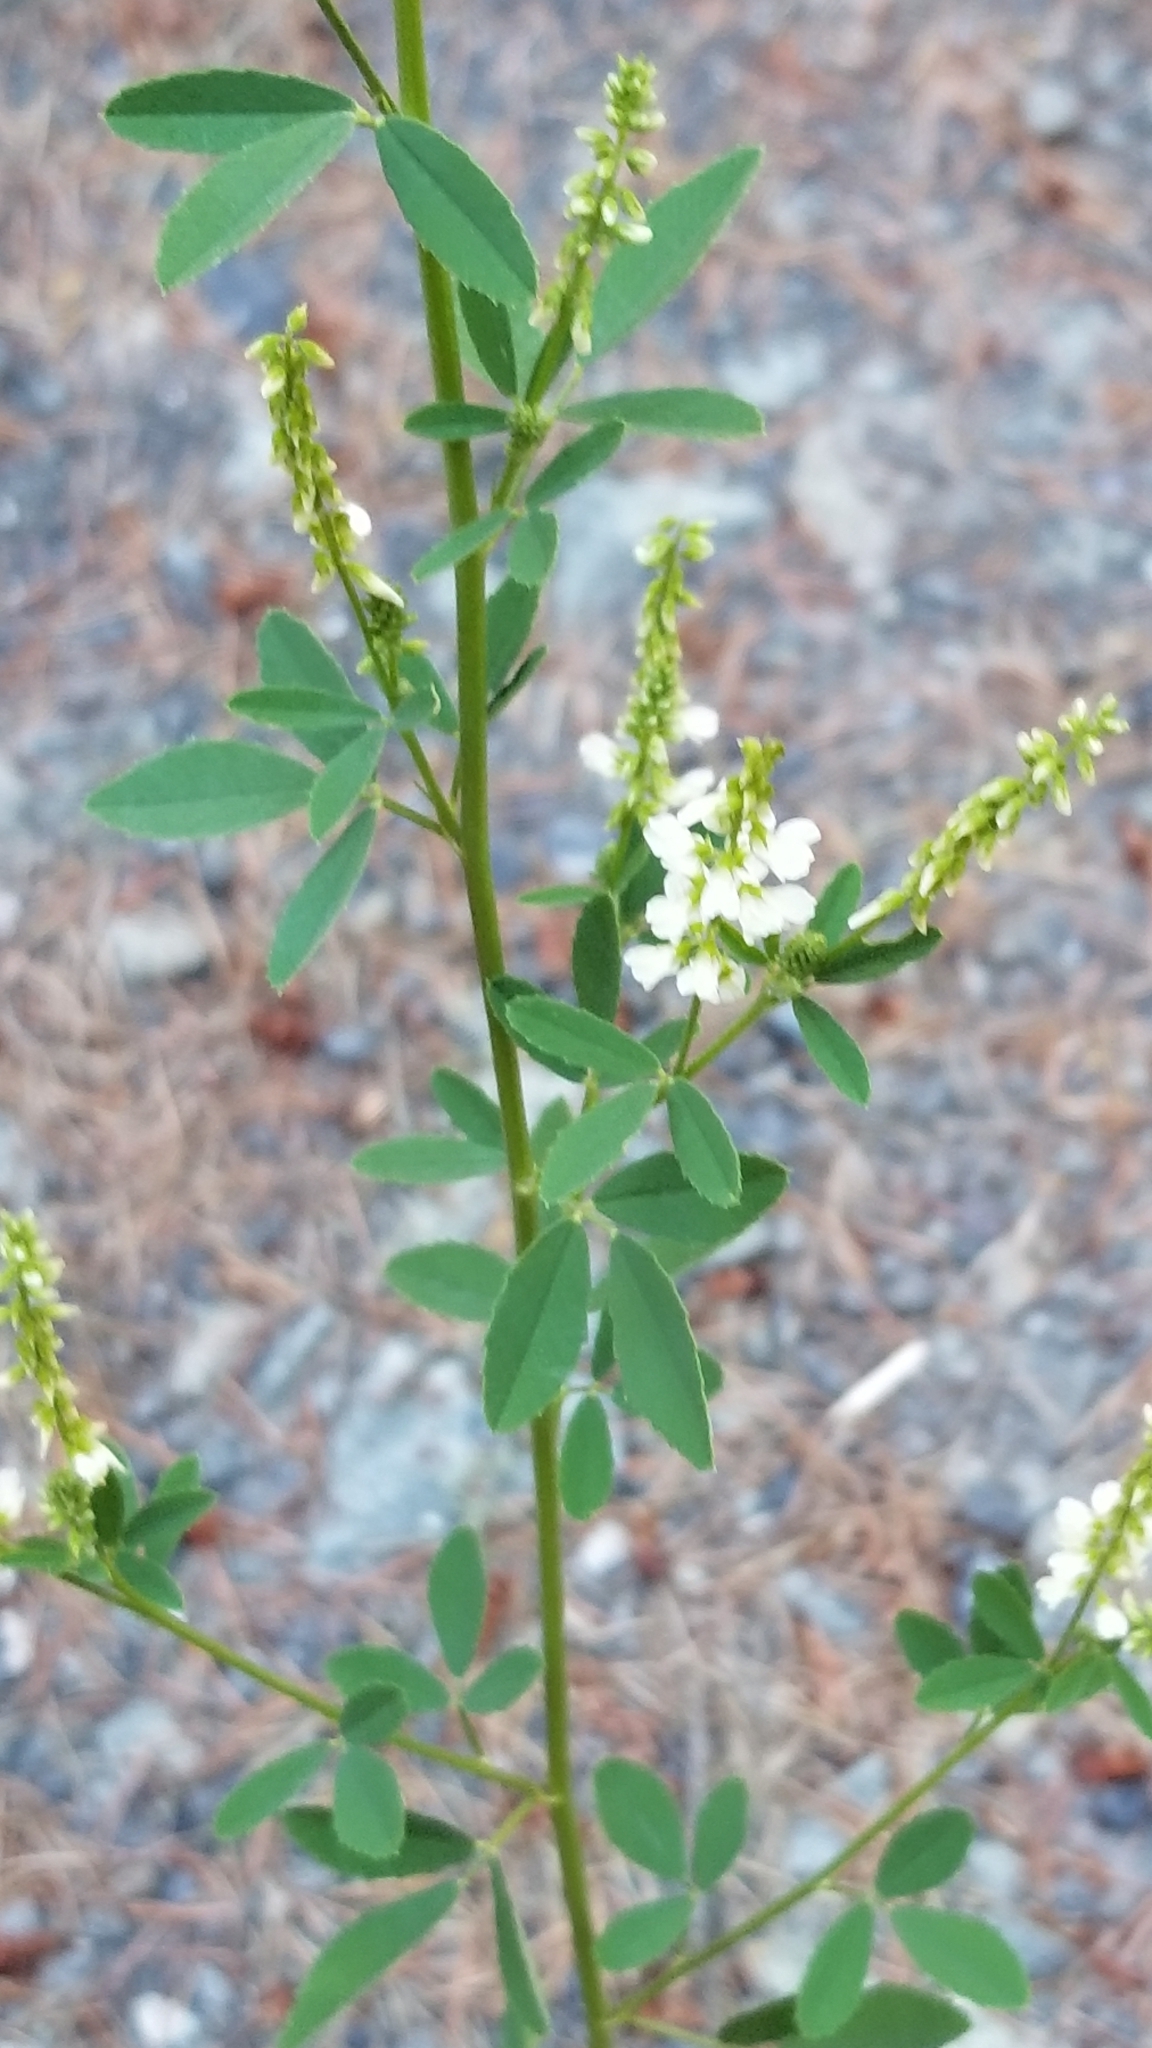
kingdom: Plantae
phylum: Tracheophyta
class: Magnoliopsida
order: Fabales
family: Fabaceae
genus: Melilotus
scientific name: Melilotus albus
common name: White melilot
